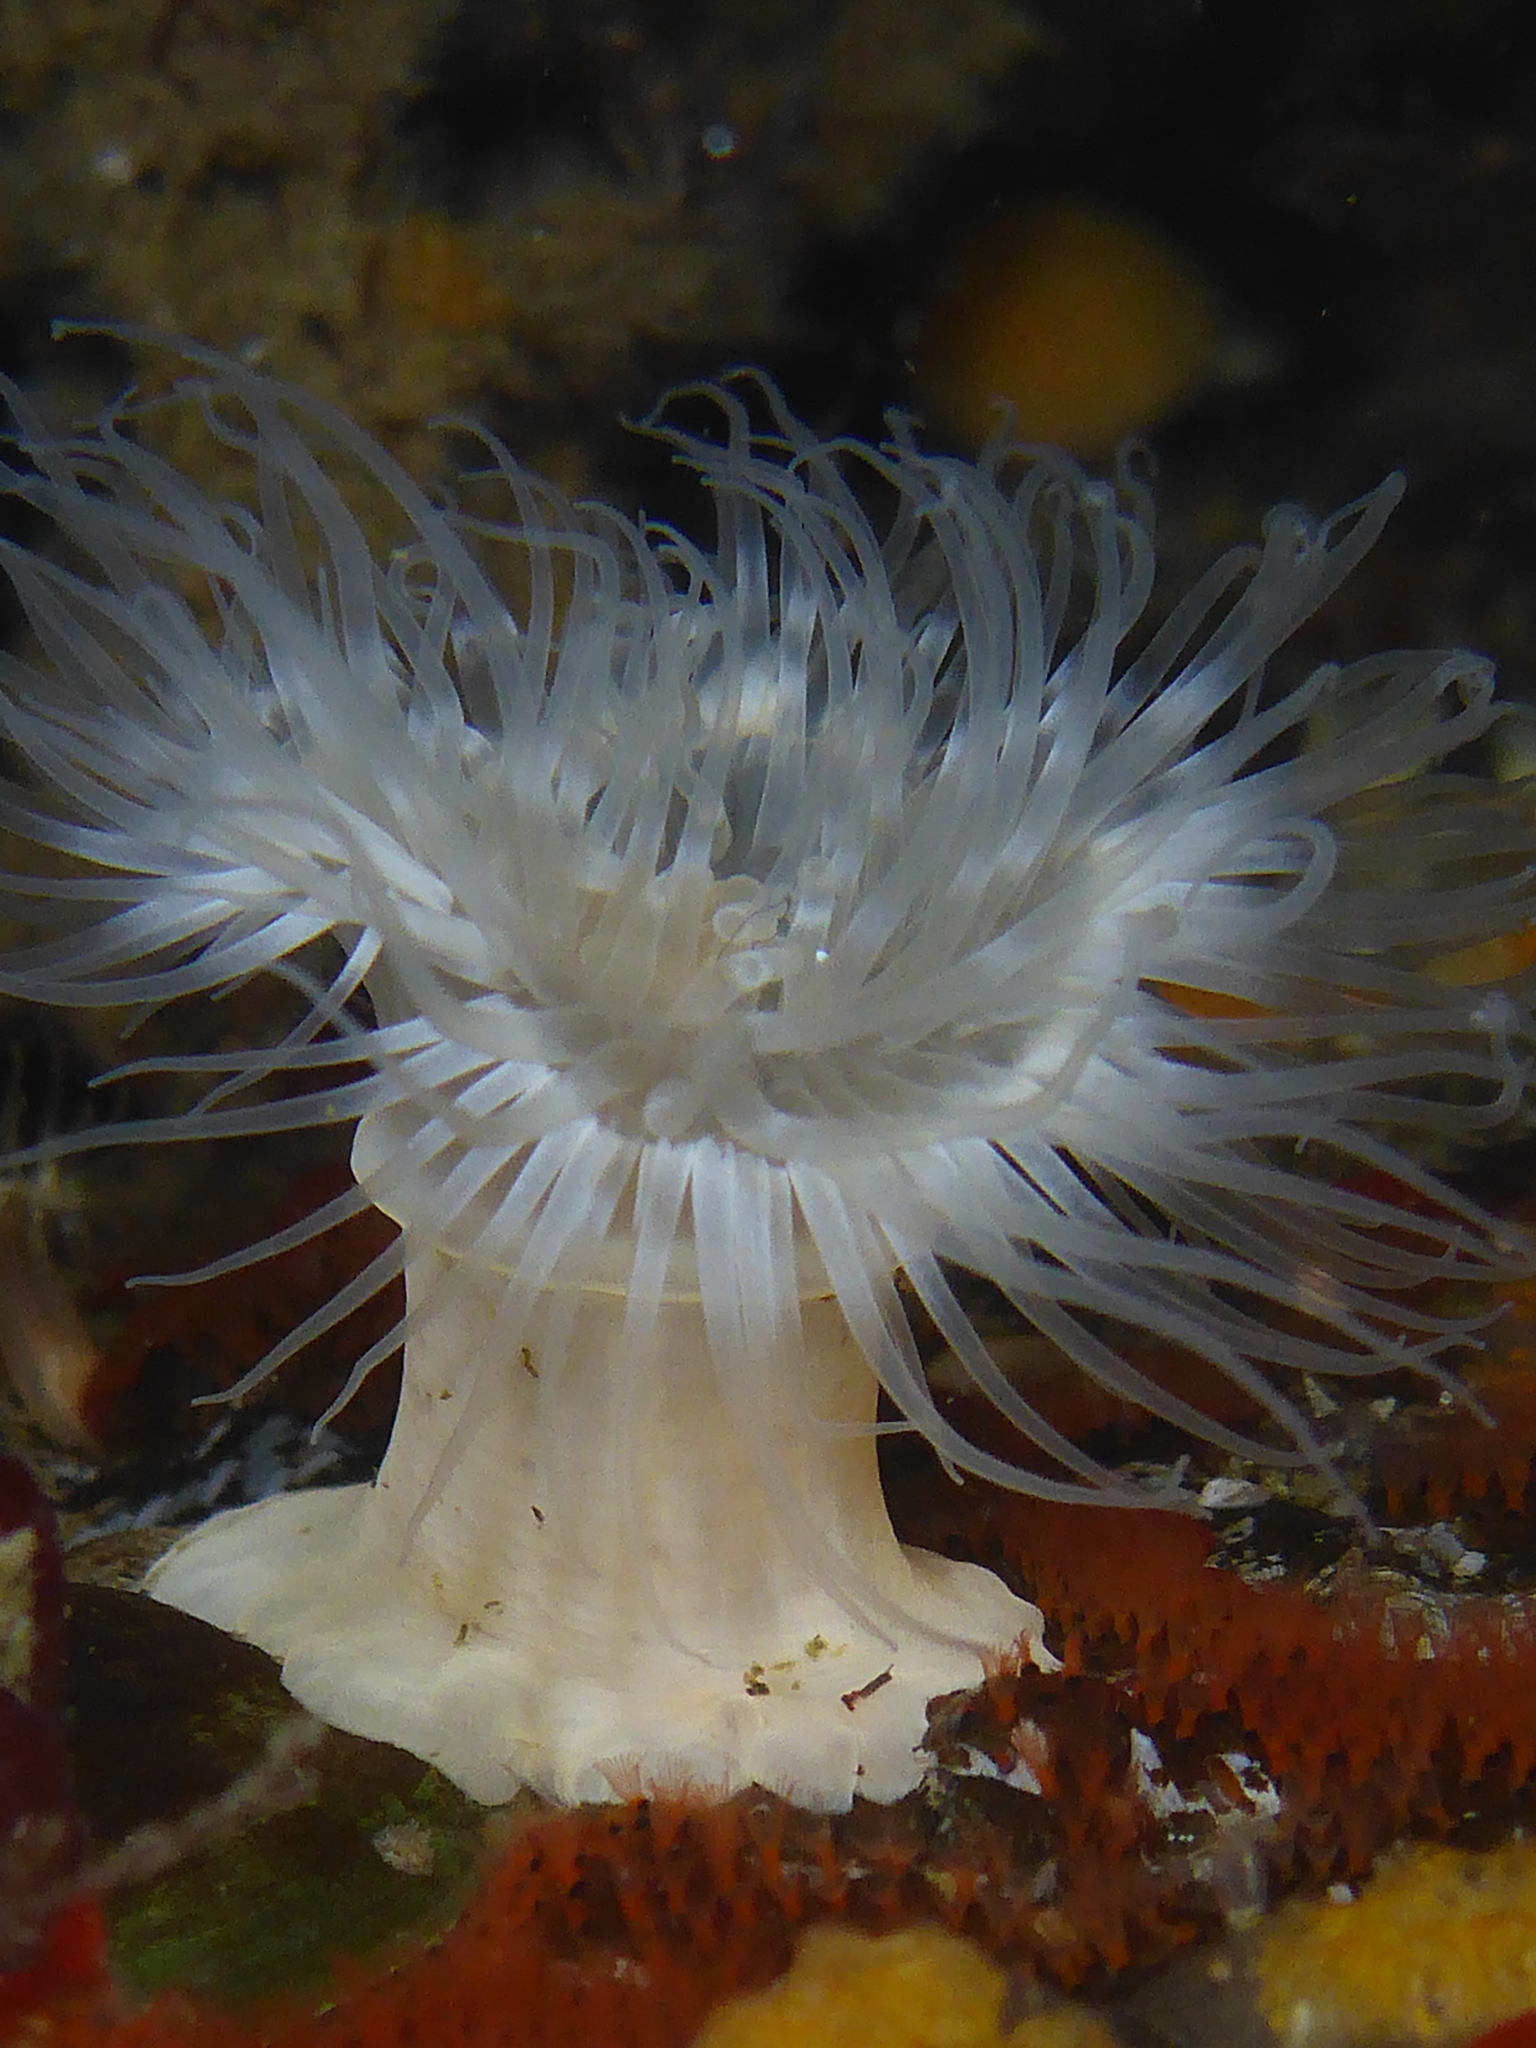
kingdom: Animalia
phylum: Cnidaria
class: Anthozoa
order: Actiniaria
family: Metridiidae
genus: Metridium
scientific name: Metridium senile
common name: Clonal plumose anemone
